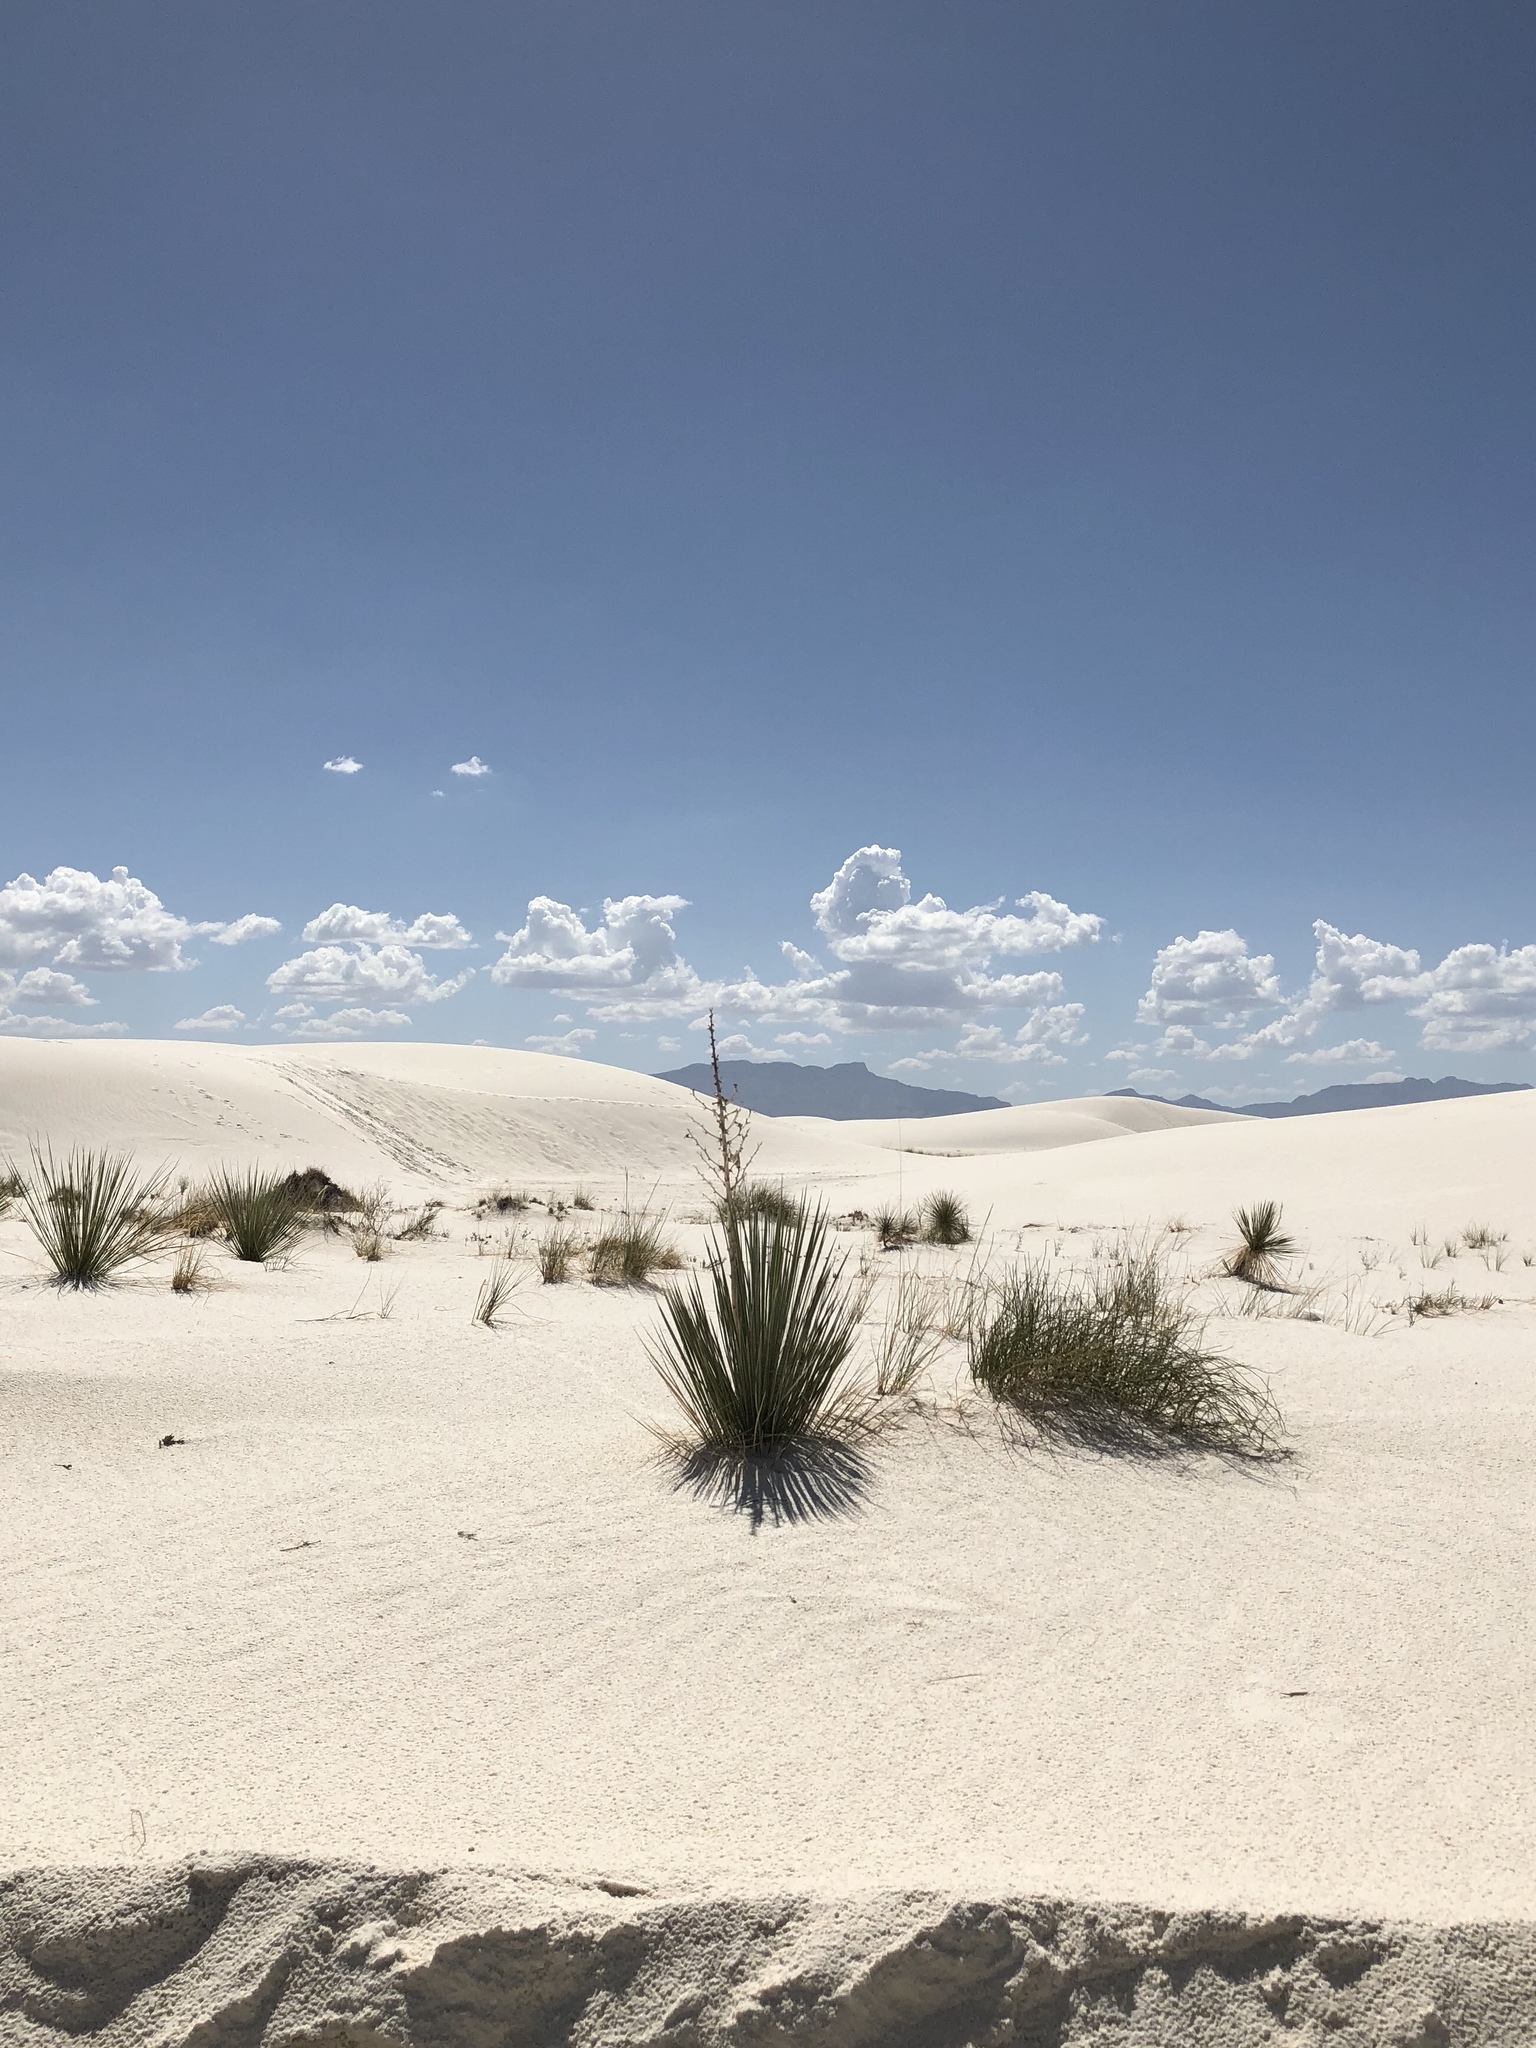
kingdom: Plantae
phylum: Tracheophyta
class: Liliopsida
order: Asparagales
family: Asparagaceae
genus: Yucca
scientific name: Yucca elata
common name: Palmella
